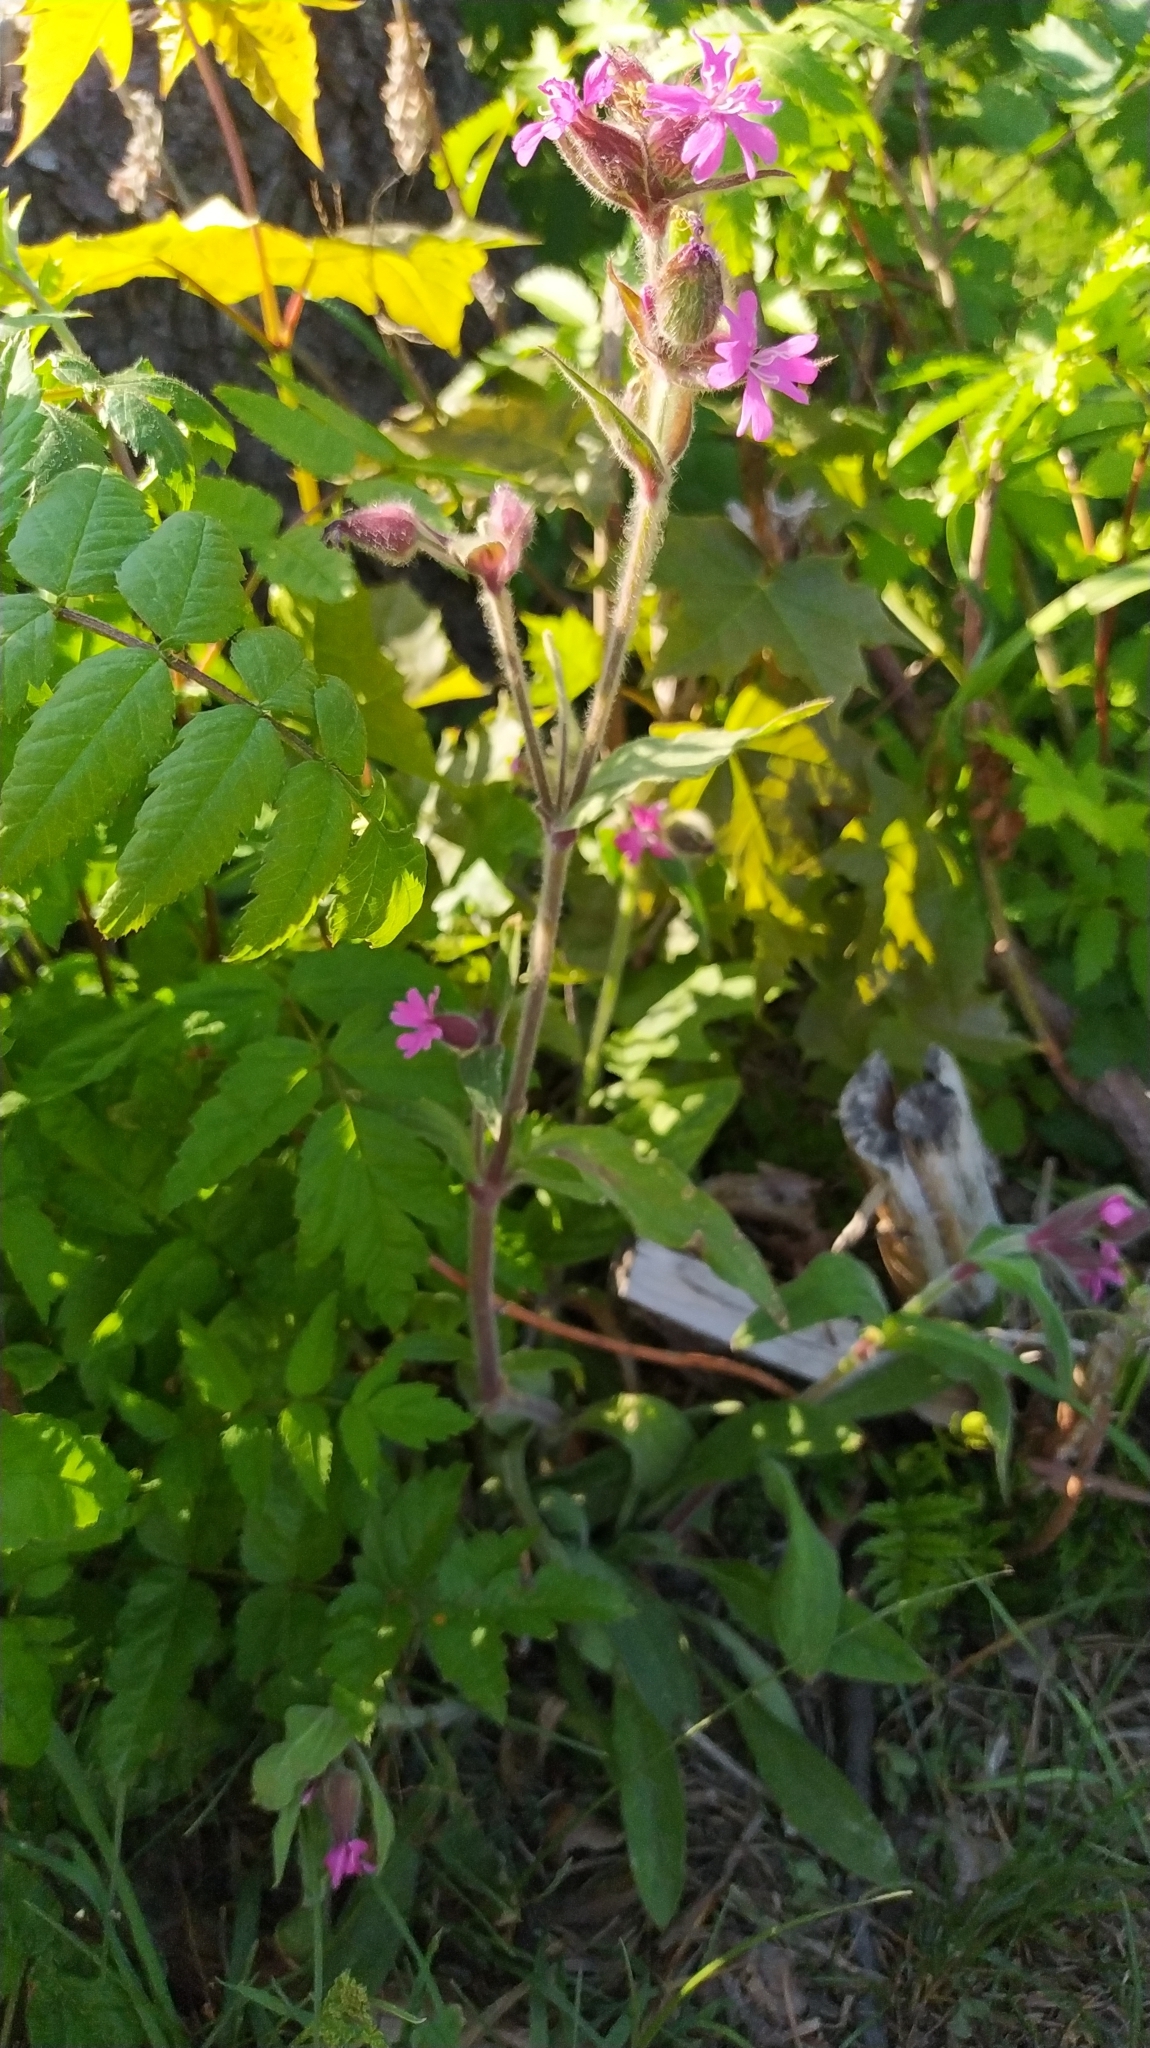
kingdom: Plantae
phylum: Tracheophyta
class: Magnoliopsida
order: Caryophyllales
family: Caryophyllaceae
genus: Silene
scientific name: Silene dioica
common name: Red campion
